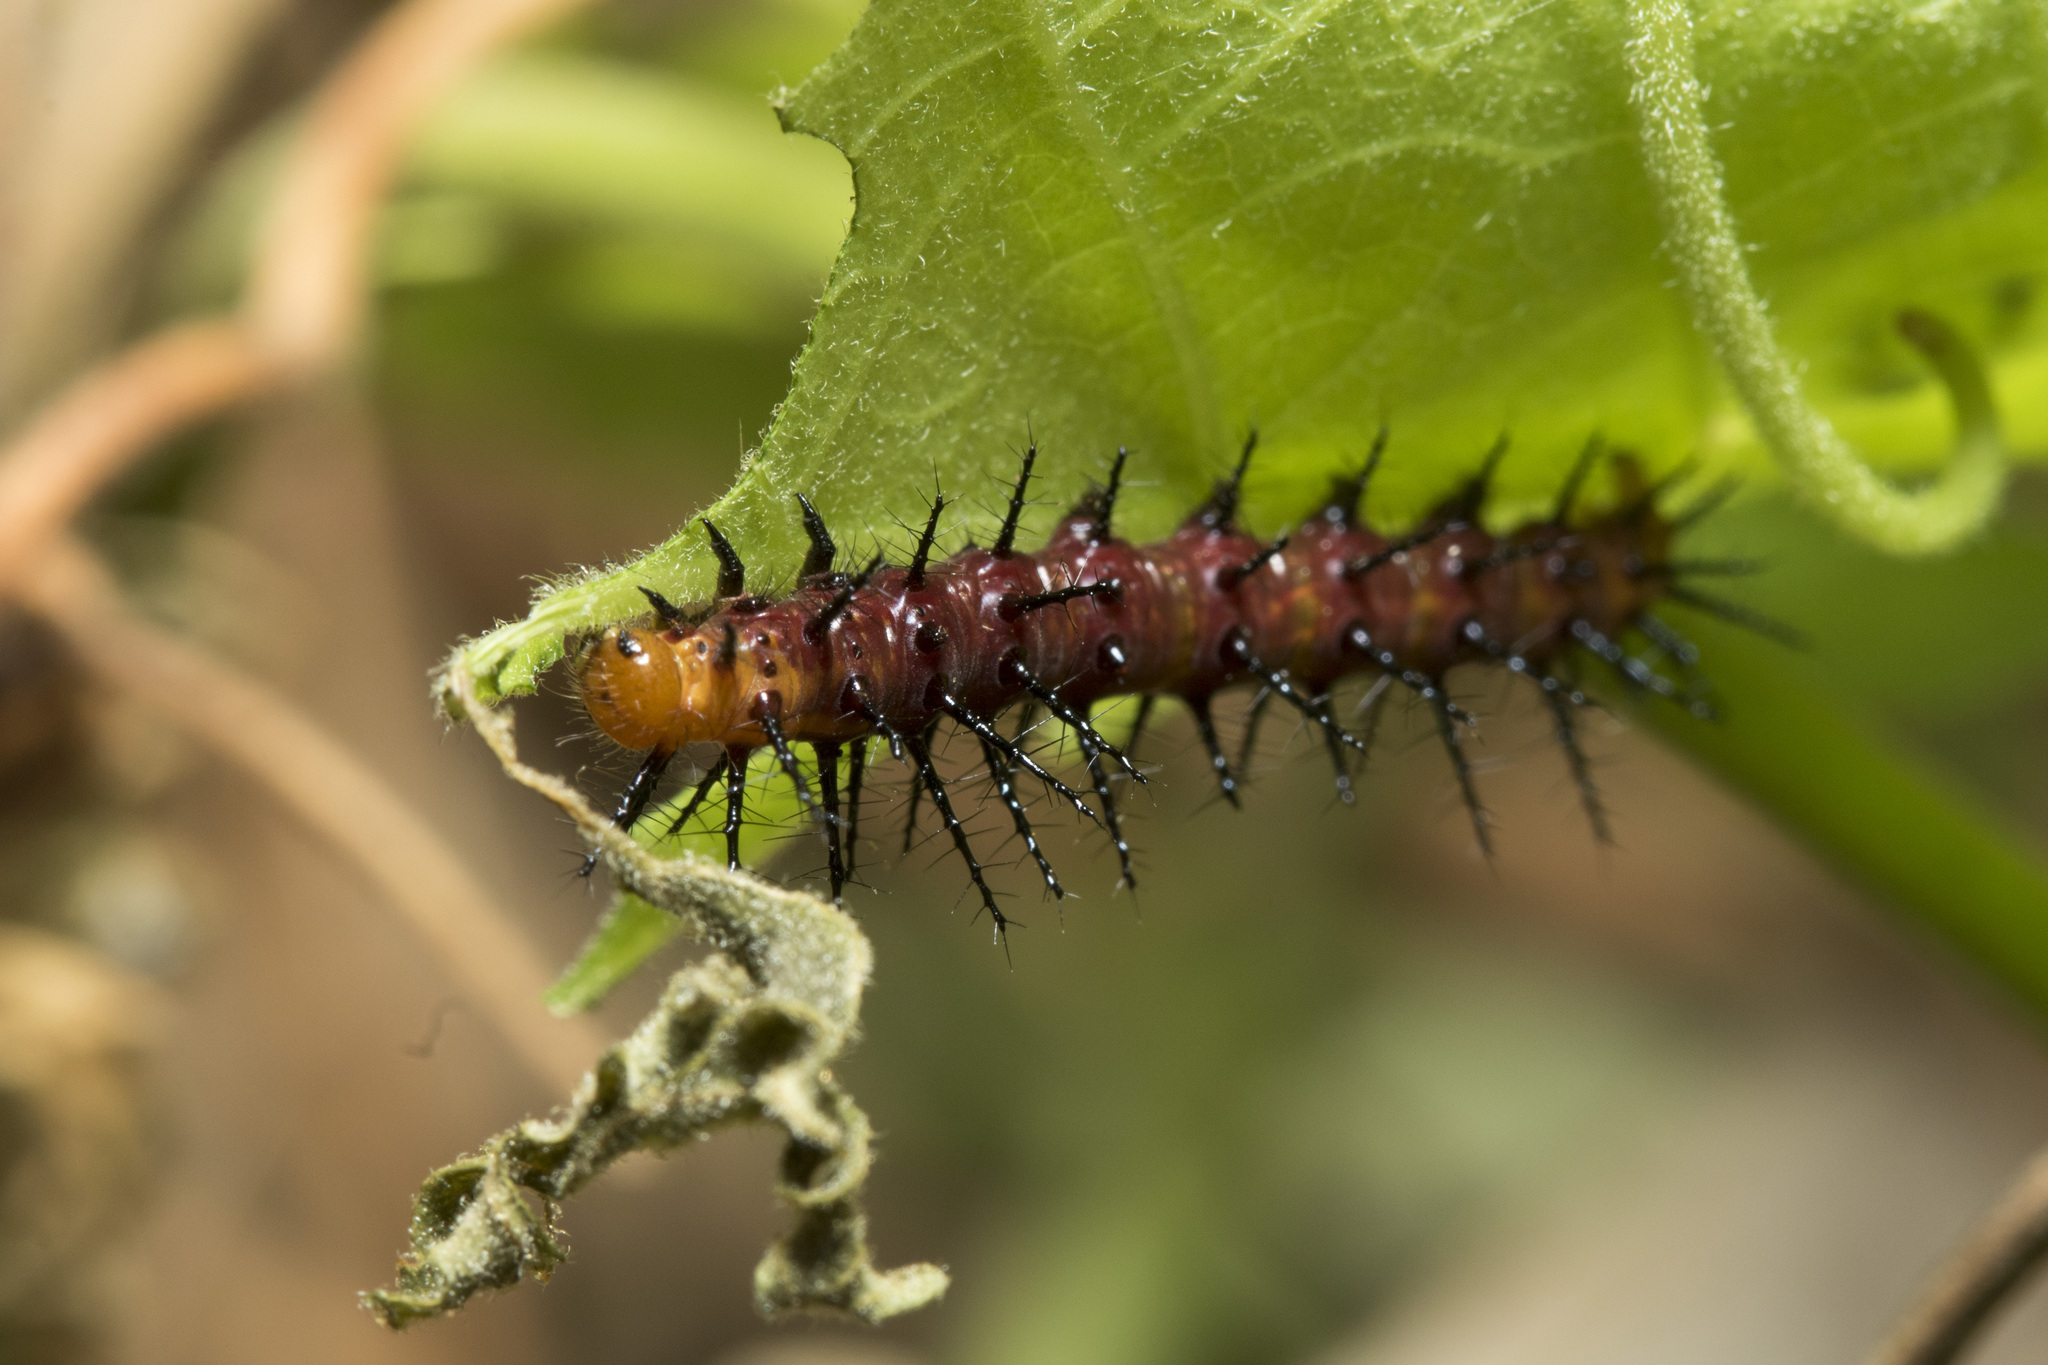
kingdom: Animalia
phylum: Arthropoda
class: Insecta
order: Lepidoptera
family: Nymphalidae
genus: Acraea
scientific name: Acraea terpsicore
